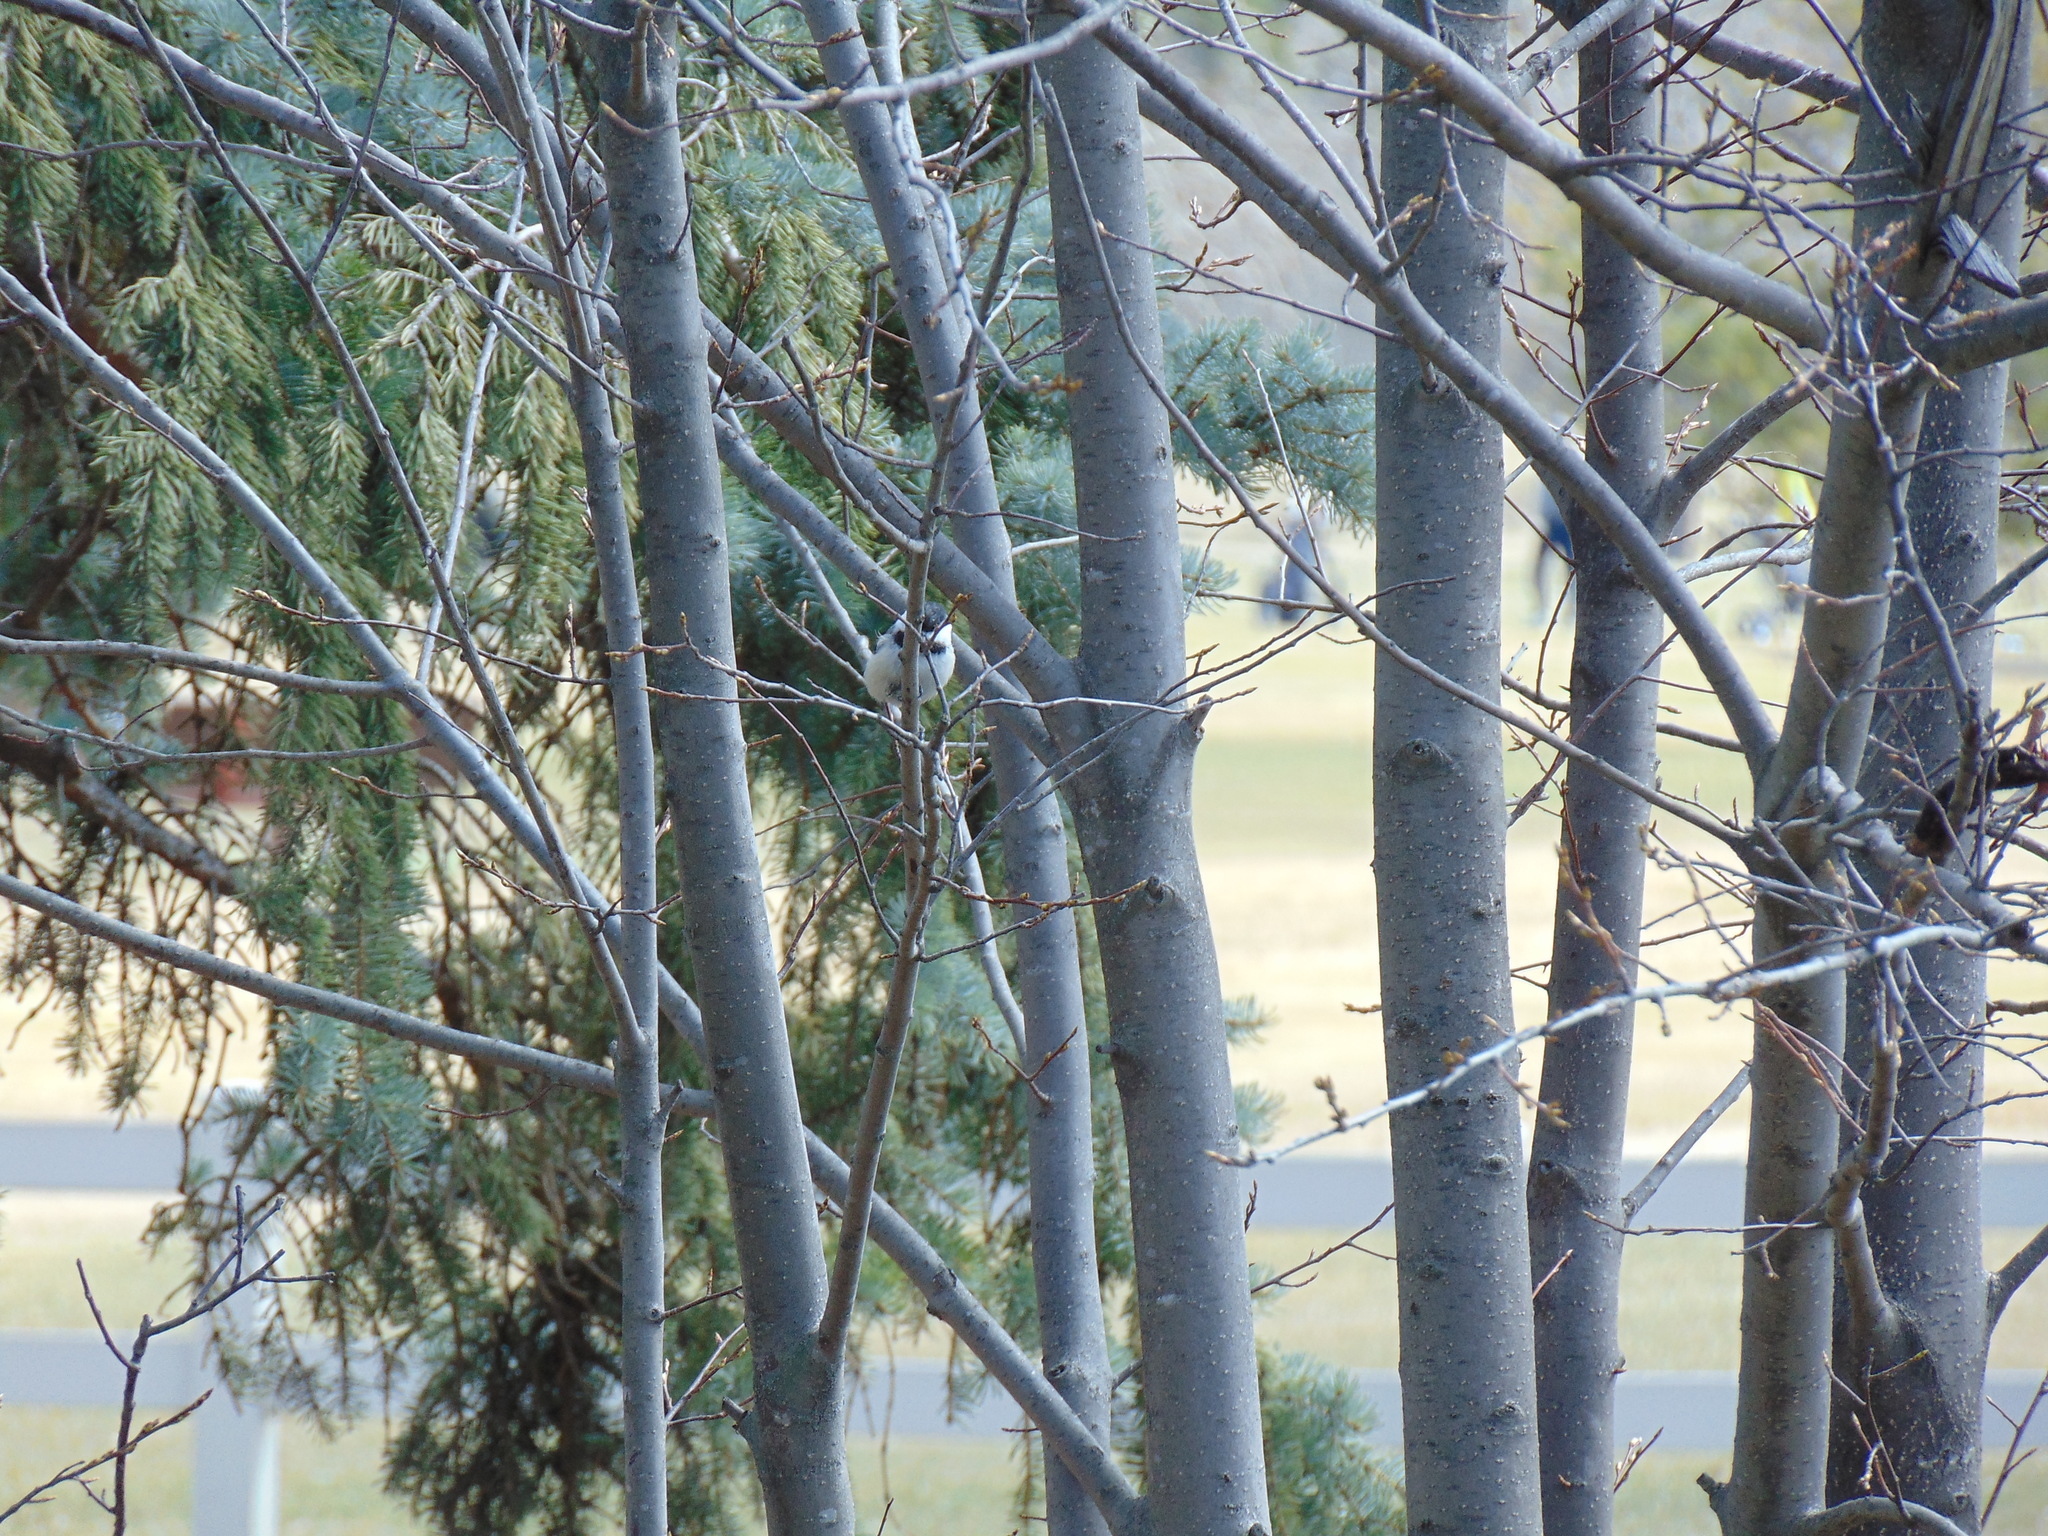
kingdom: Animalia
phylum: Chordata
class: Aves
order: Passeriformes
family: Paridae
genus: Poecile
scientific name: Poecile atricapillus
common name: Black-capped chickadee
